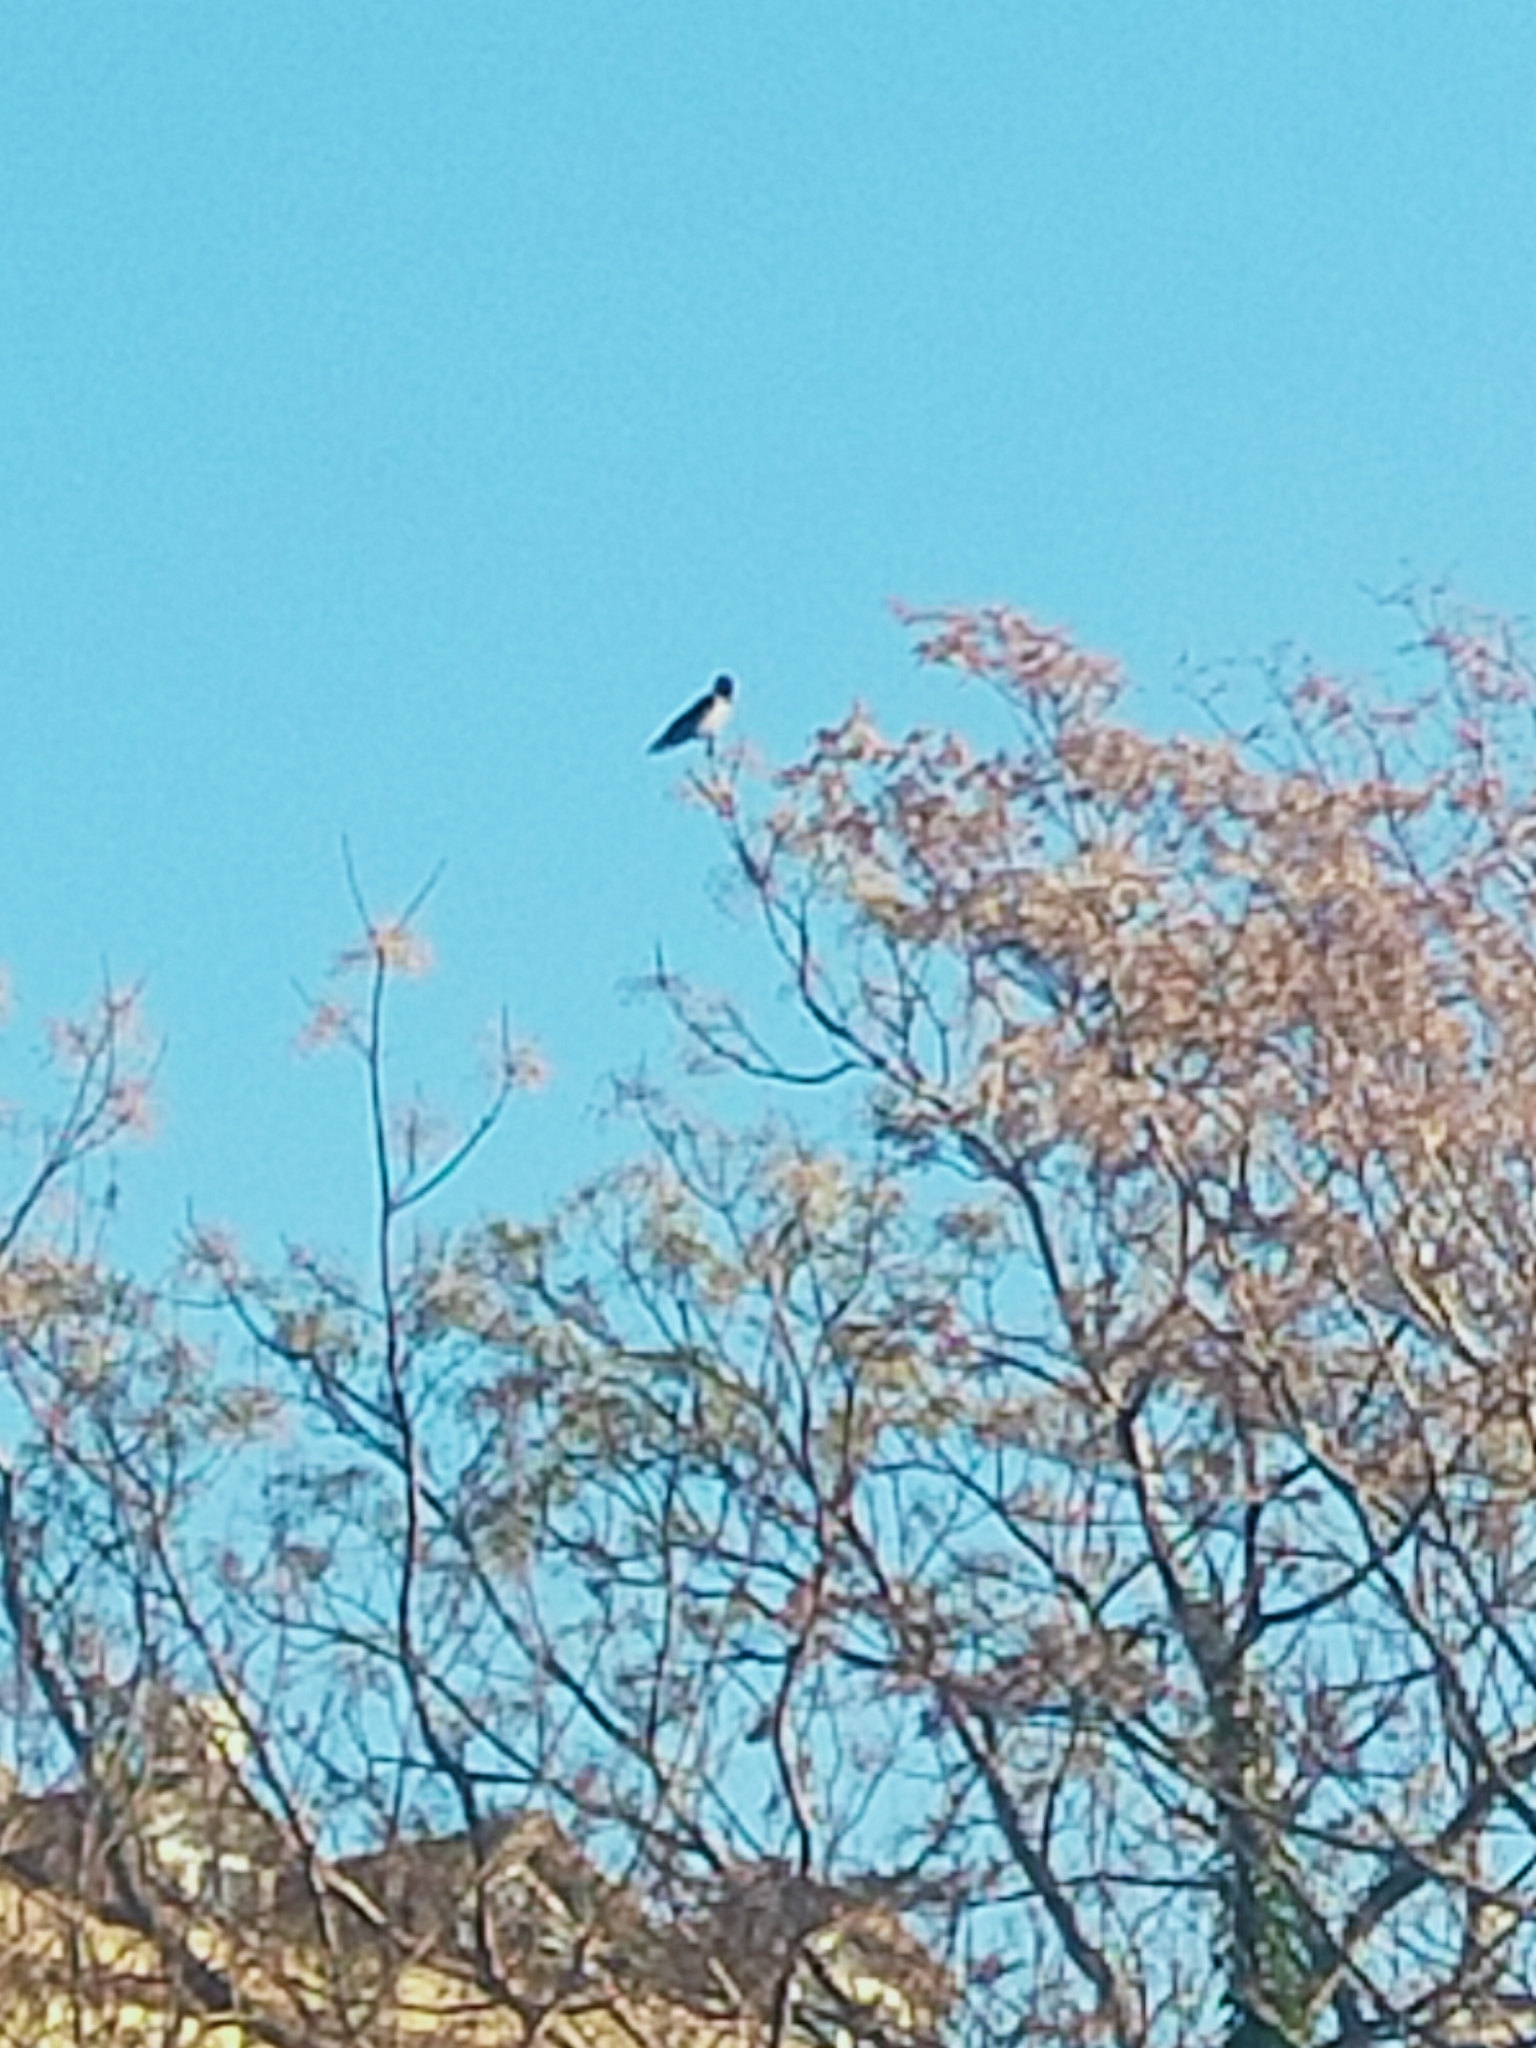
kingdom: Animalia
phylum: Chordata
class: Aves
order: Passeriformes
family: Corvidae
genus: Corvus
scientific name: Corvus cornix
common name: Hooded crow
